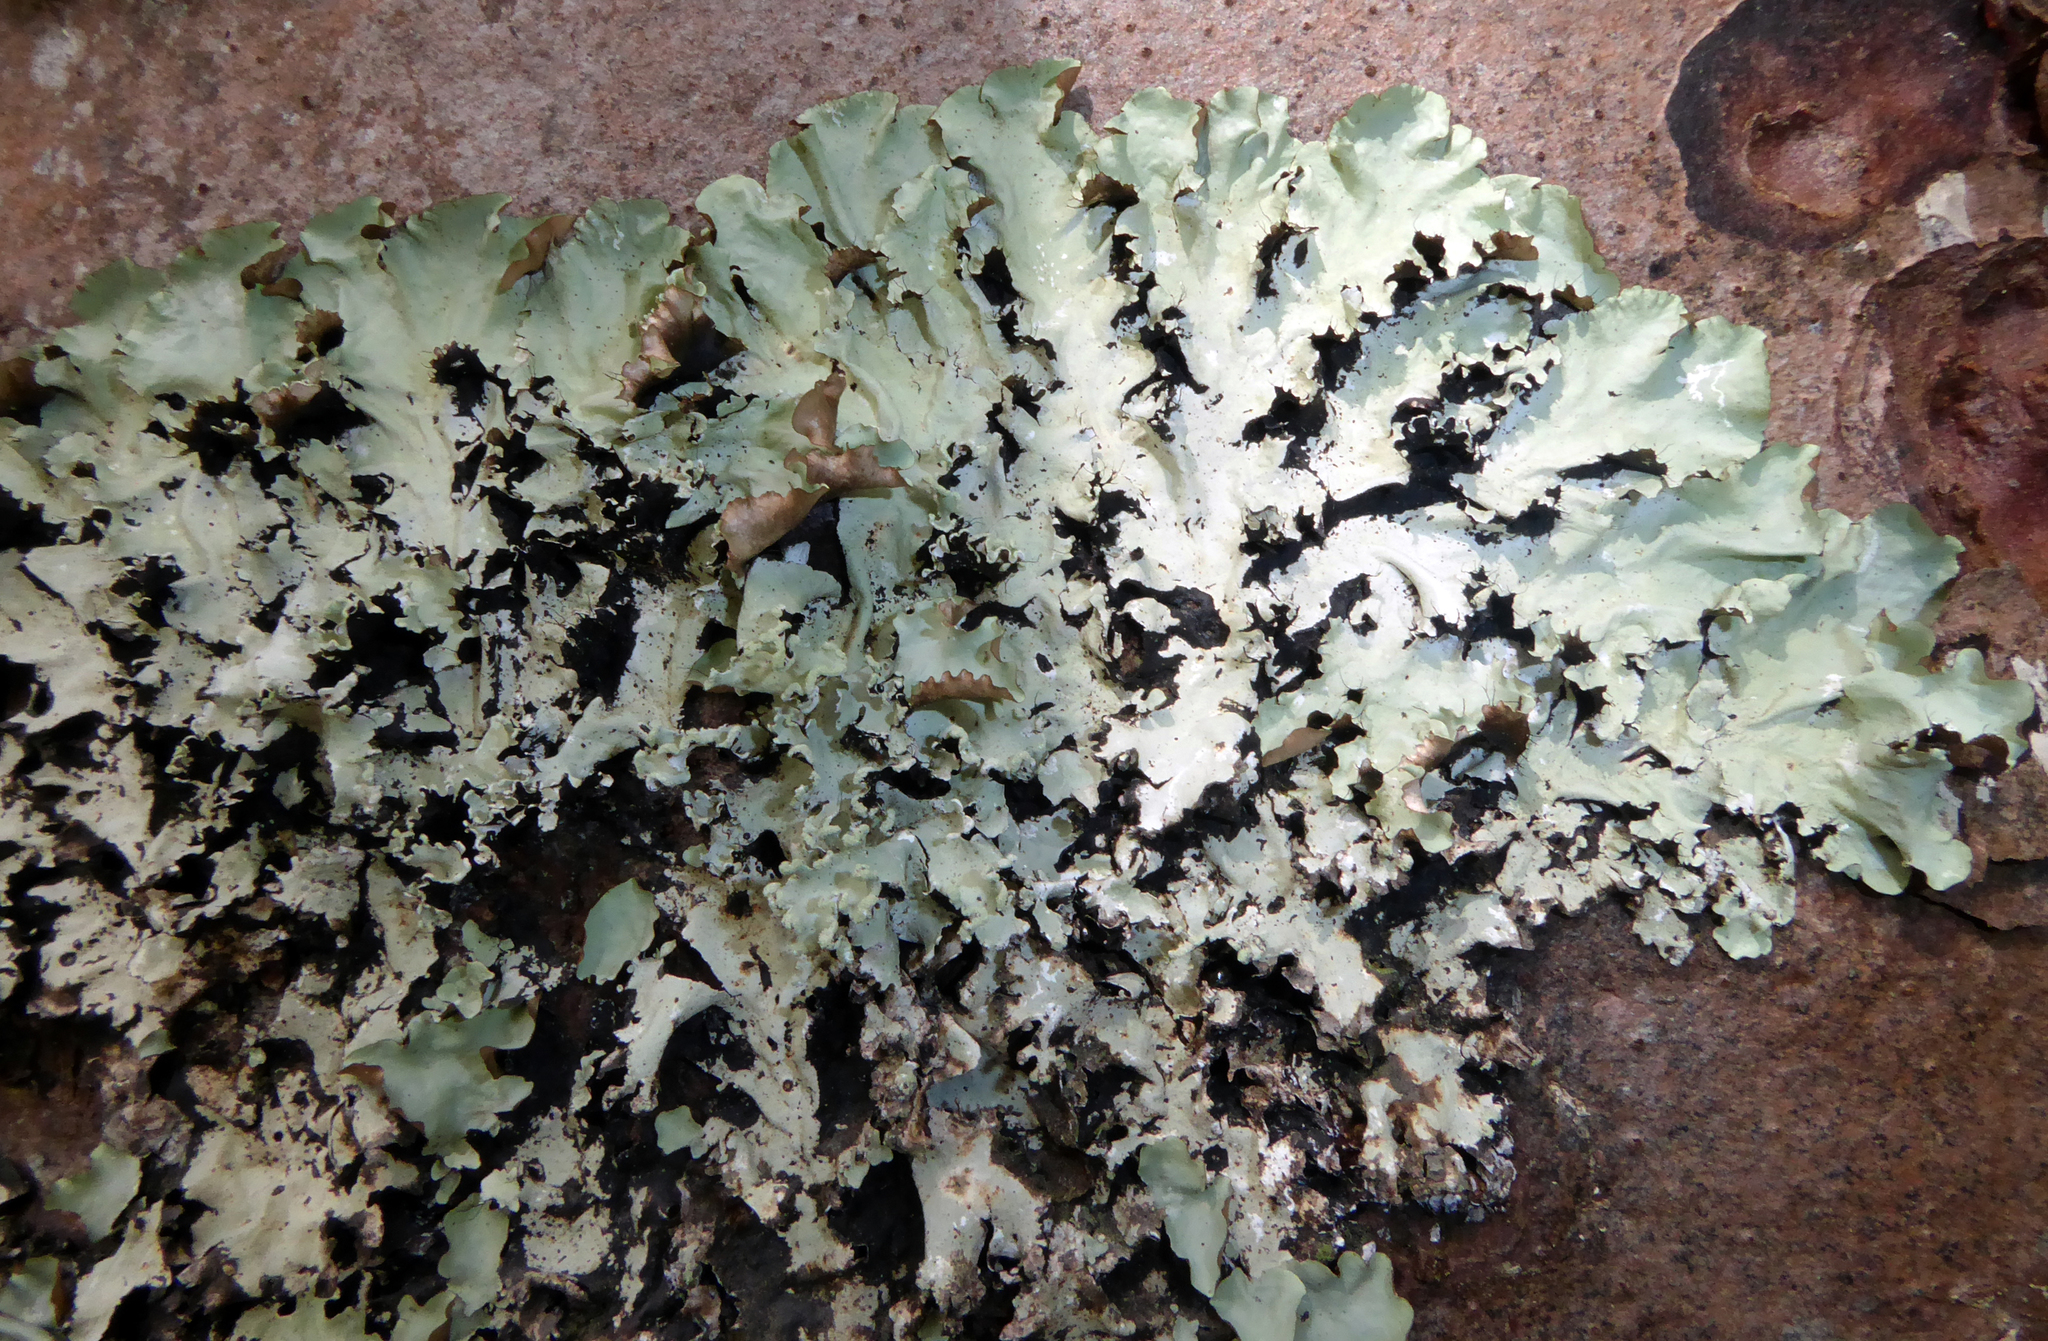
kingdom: Fungi
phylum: Ascomycota
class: Lecanoromycetes
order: Lecanorales
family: Parmeliaceae
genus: Parmotrema
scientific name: Parmotrema robustum
